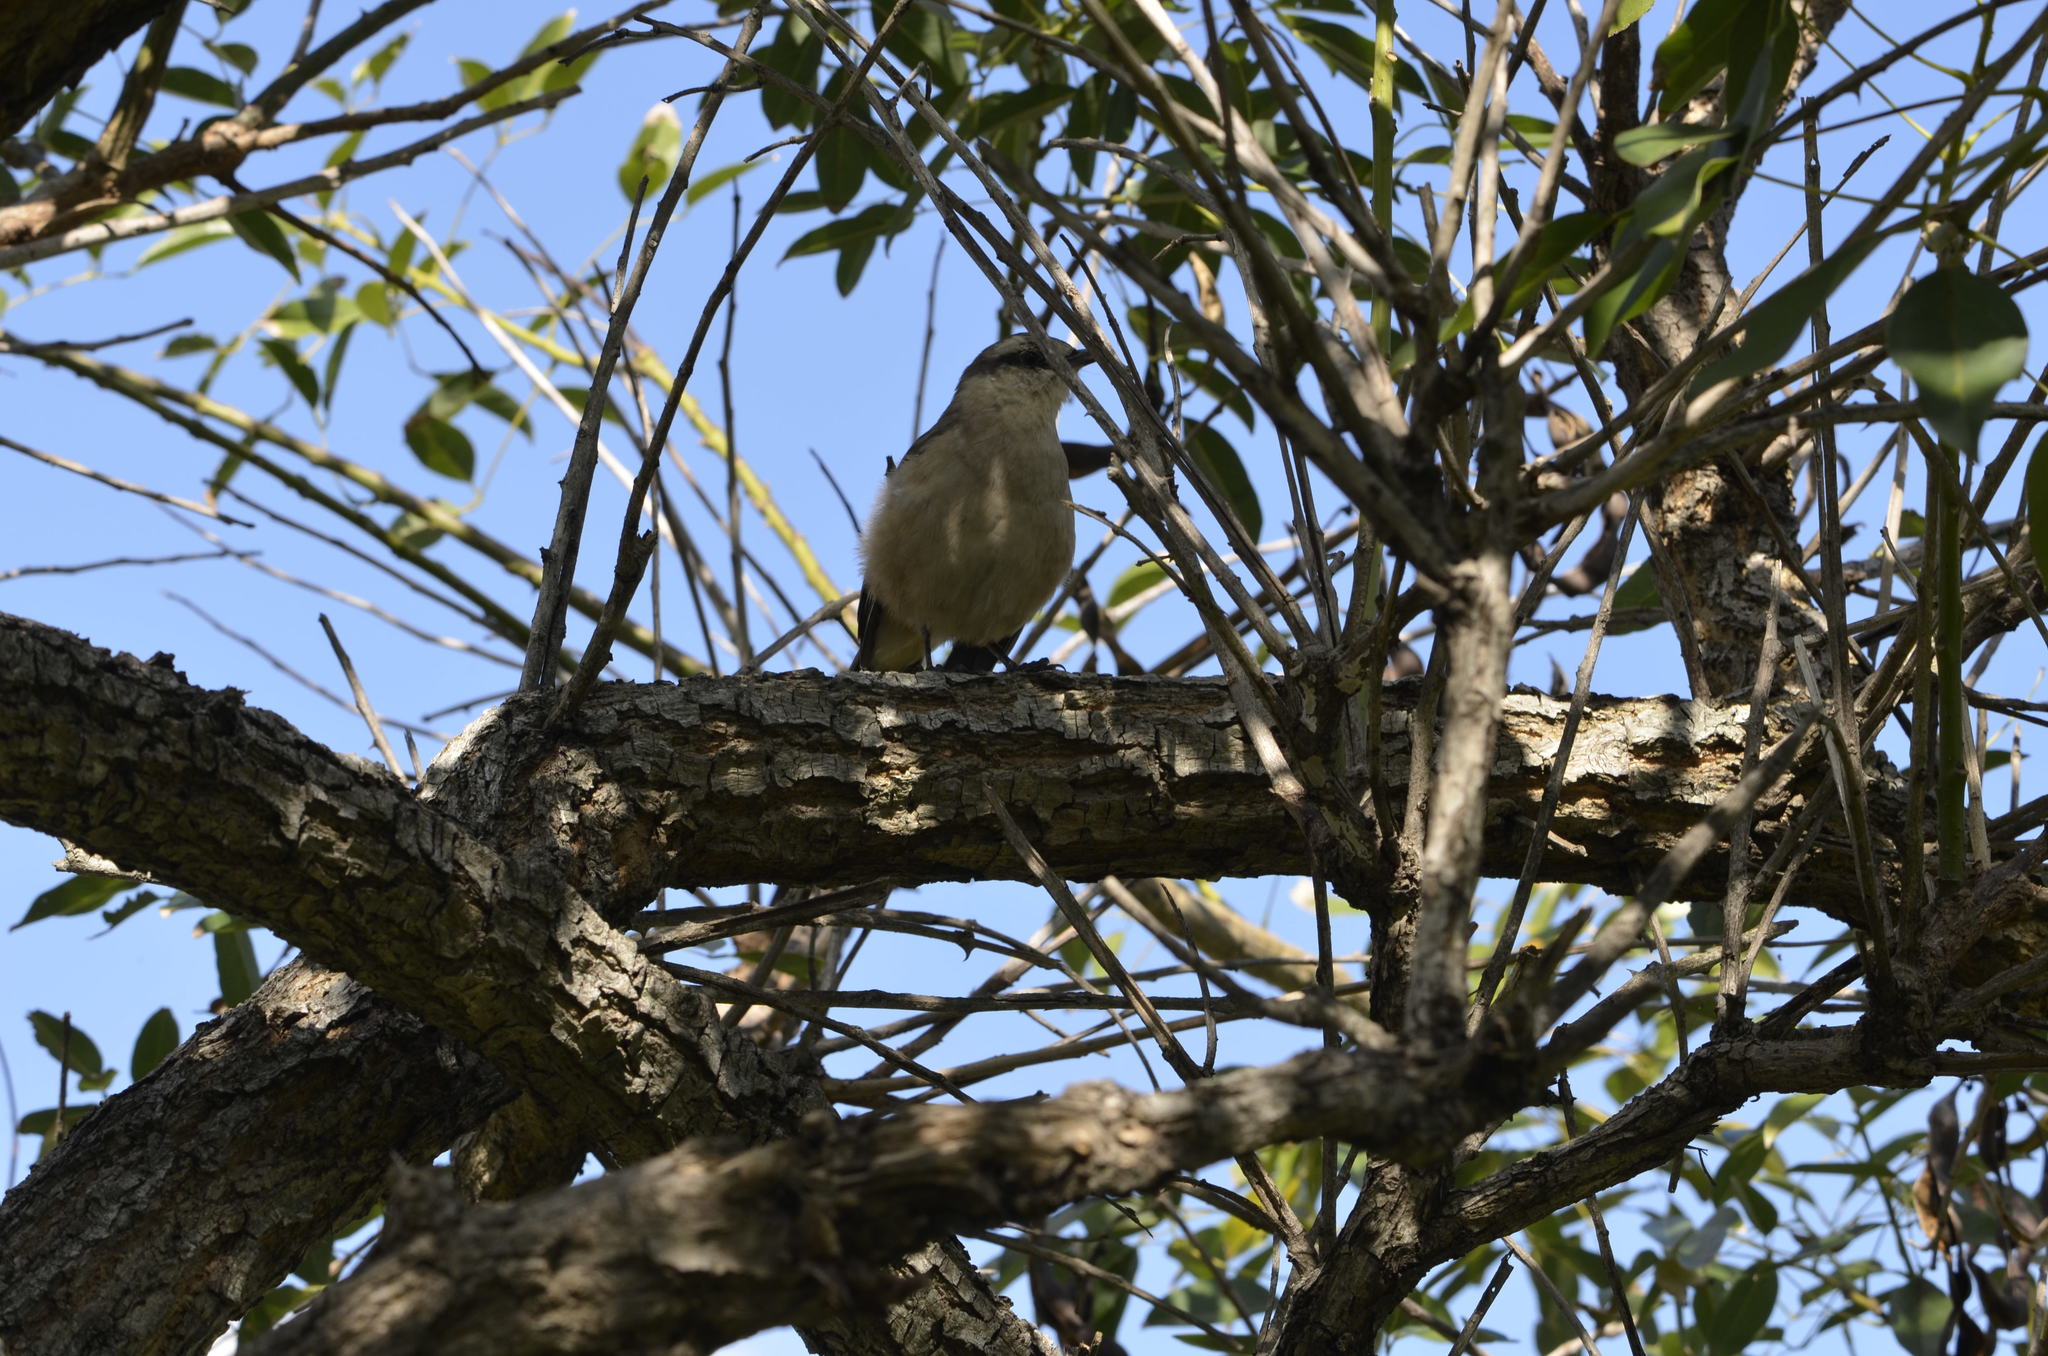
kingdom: Animalia
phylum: Chordata
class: Aves
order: Passeriformes
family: Mimidae
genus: Mimus
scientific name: Mimus saturninus
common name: Chalk-browed mockingbird
